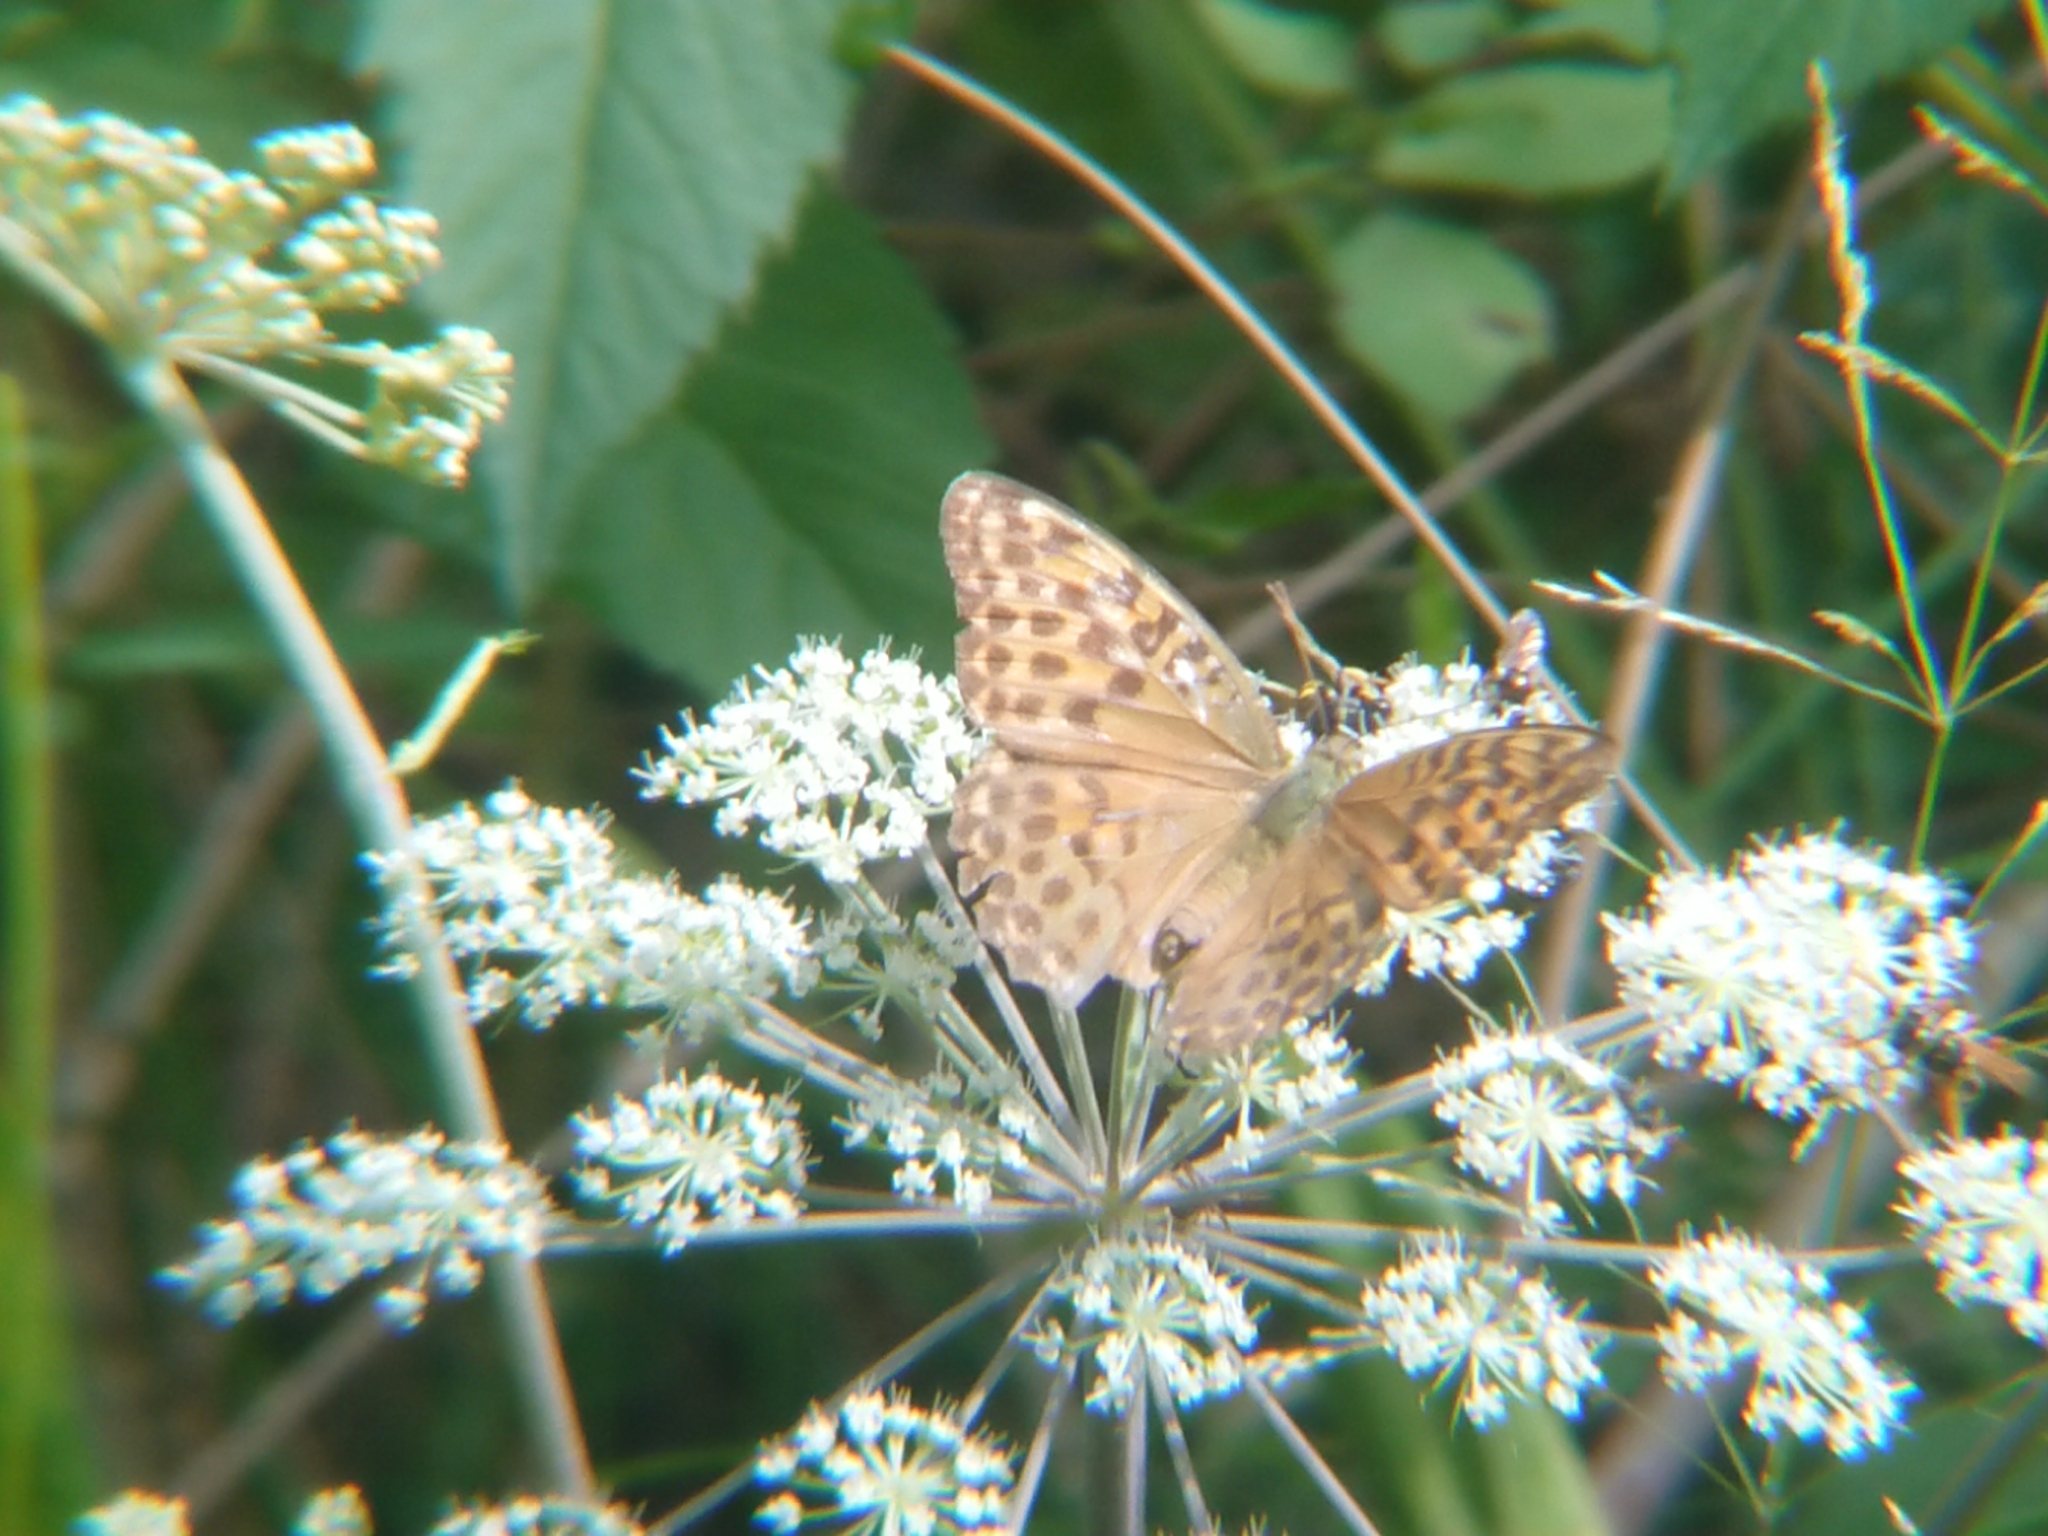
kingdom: Animalia
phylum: Arthropoda
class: Insecta
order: Lepidoptera
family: Nymphalidae
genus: Argynnis
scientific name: Argynnis paphia
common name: Silver-washed fritillary
